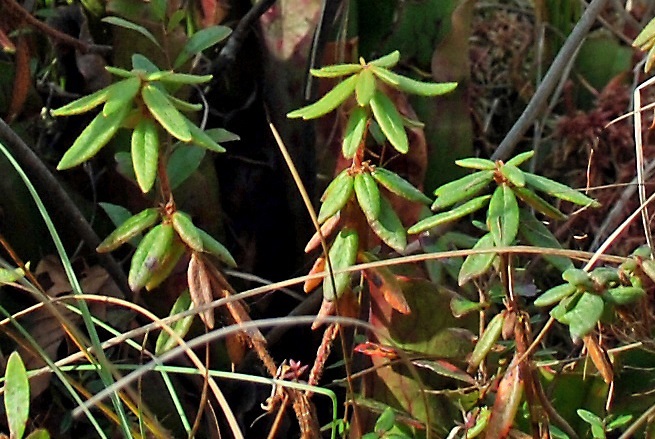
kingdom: Plantae
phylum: Tracheophyta
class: Magnoliopsida
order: Ericales
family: Ericaceae
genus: Rhododendron
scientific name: Rhododendron groenlandicum
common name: Bog labrador tea
